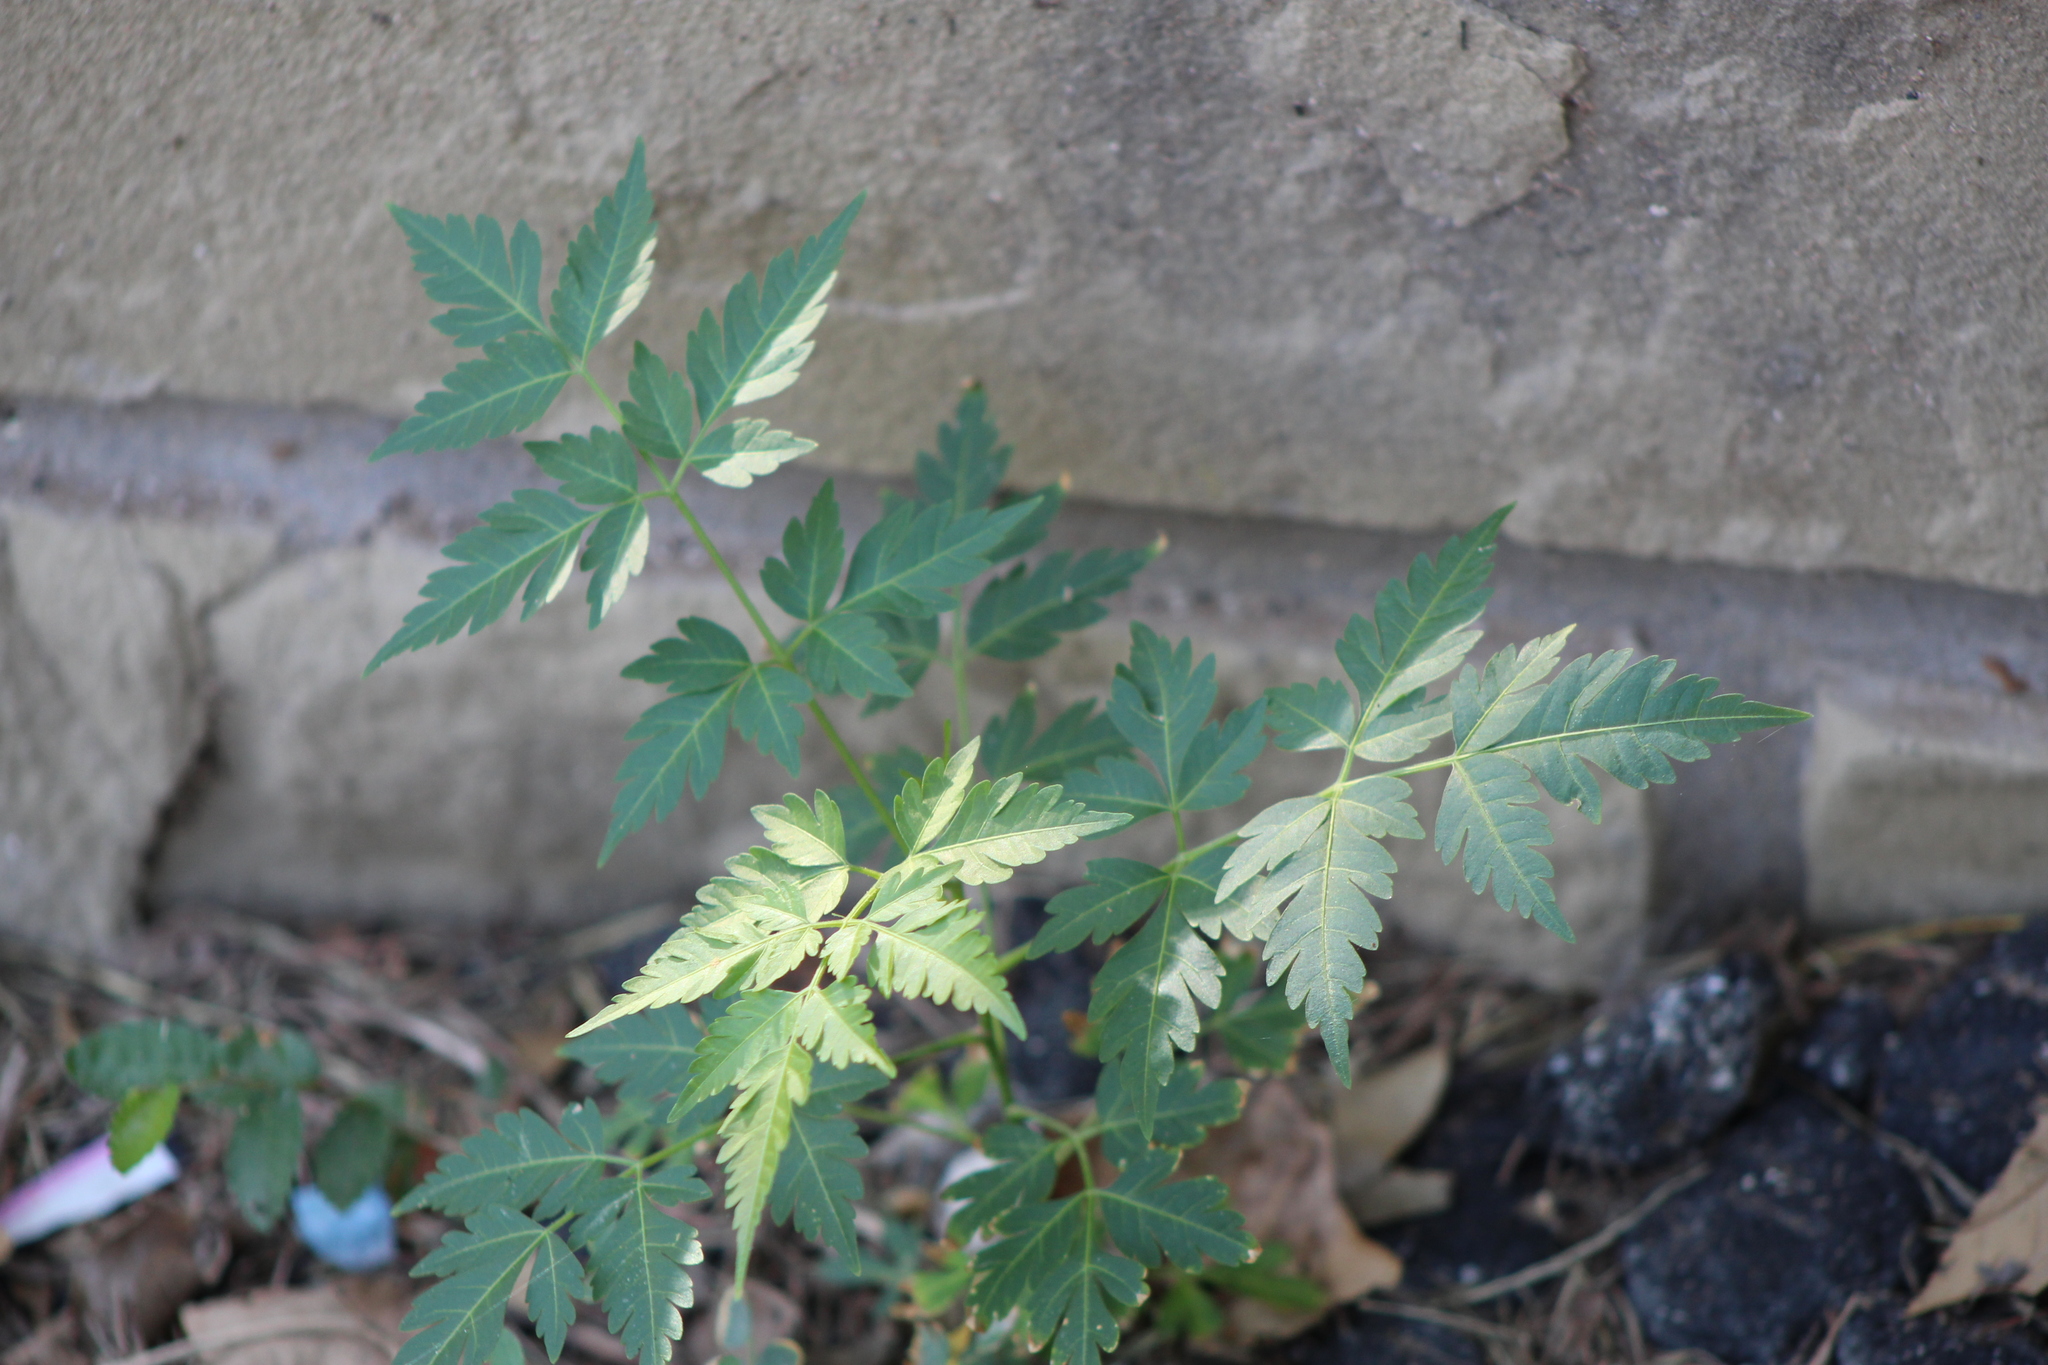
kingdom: Plantae
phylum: Tracheophyta
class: Magnoliopsida
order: Sapindales
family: Meliaceae
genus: Melia
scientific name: Melia azedarach
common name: Chinaberrytree
